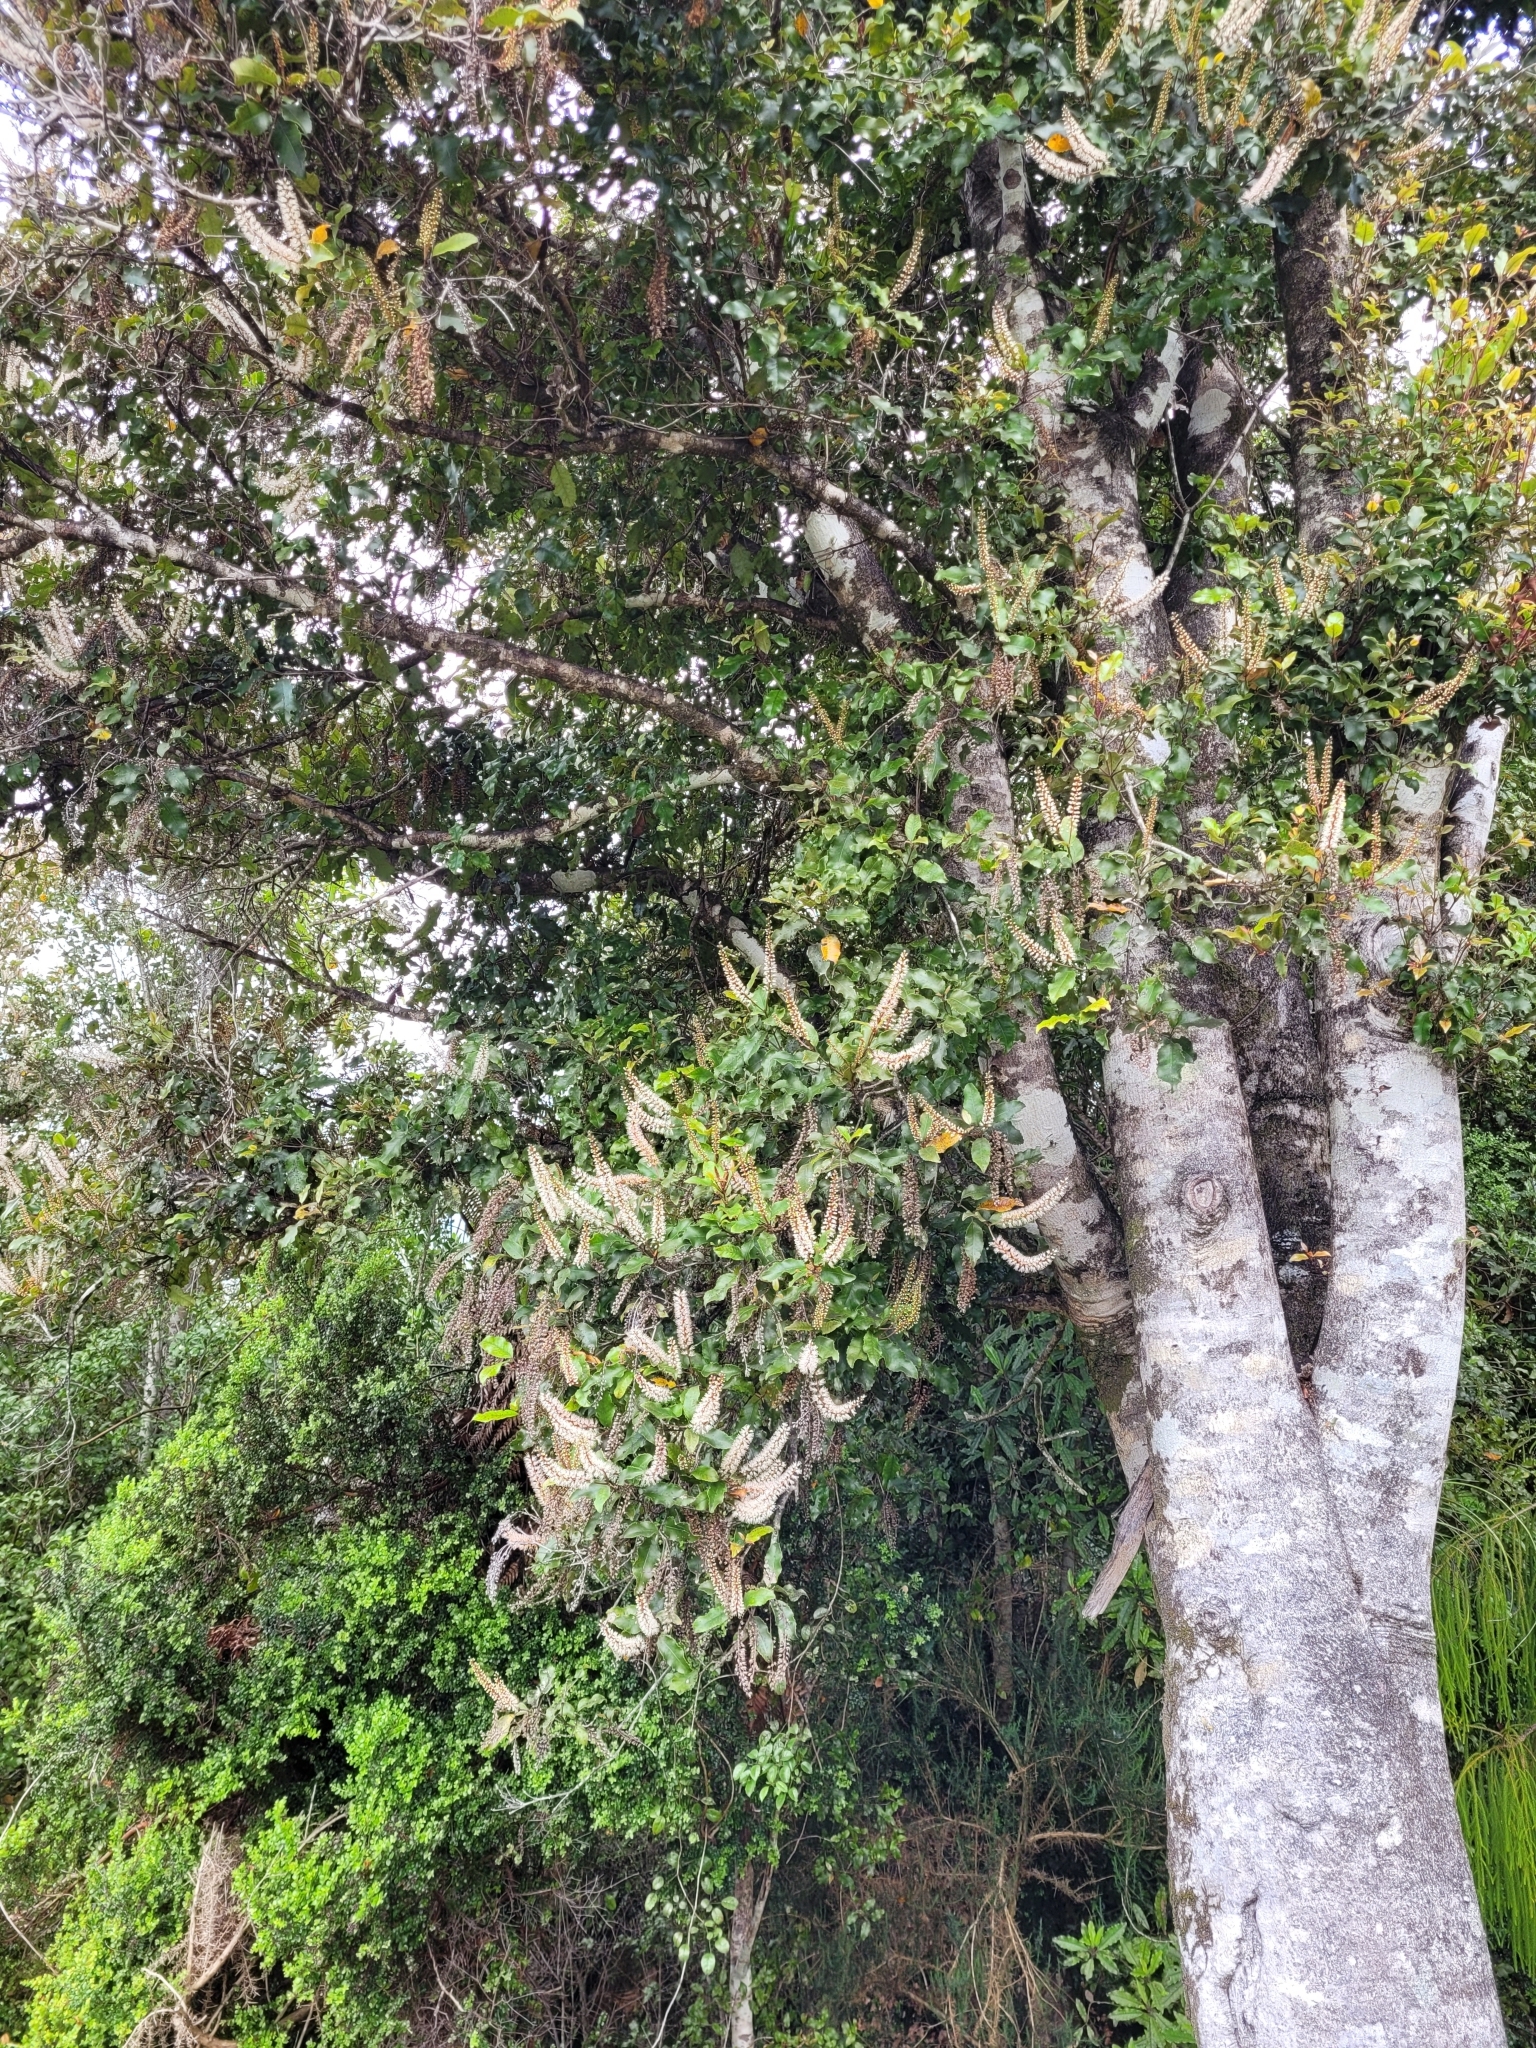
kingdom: Plantae
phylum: Tracheophyta
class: Magnoliopsida
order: Oxalidales
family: Cunoniaceae
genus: Pterophylla
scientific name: Pterophylla racemosa
